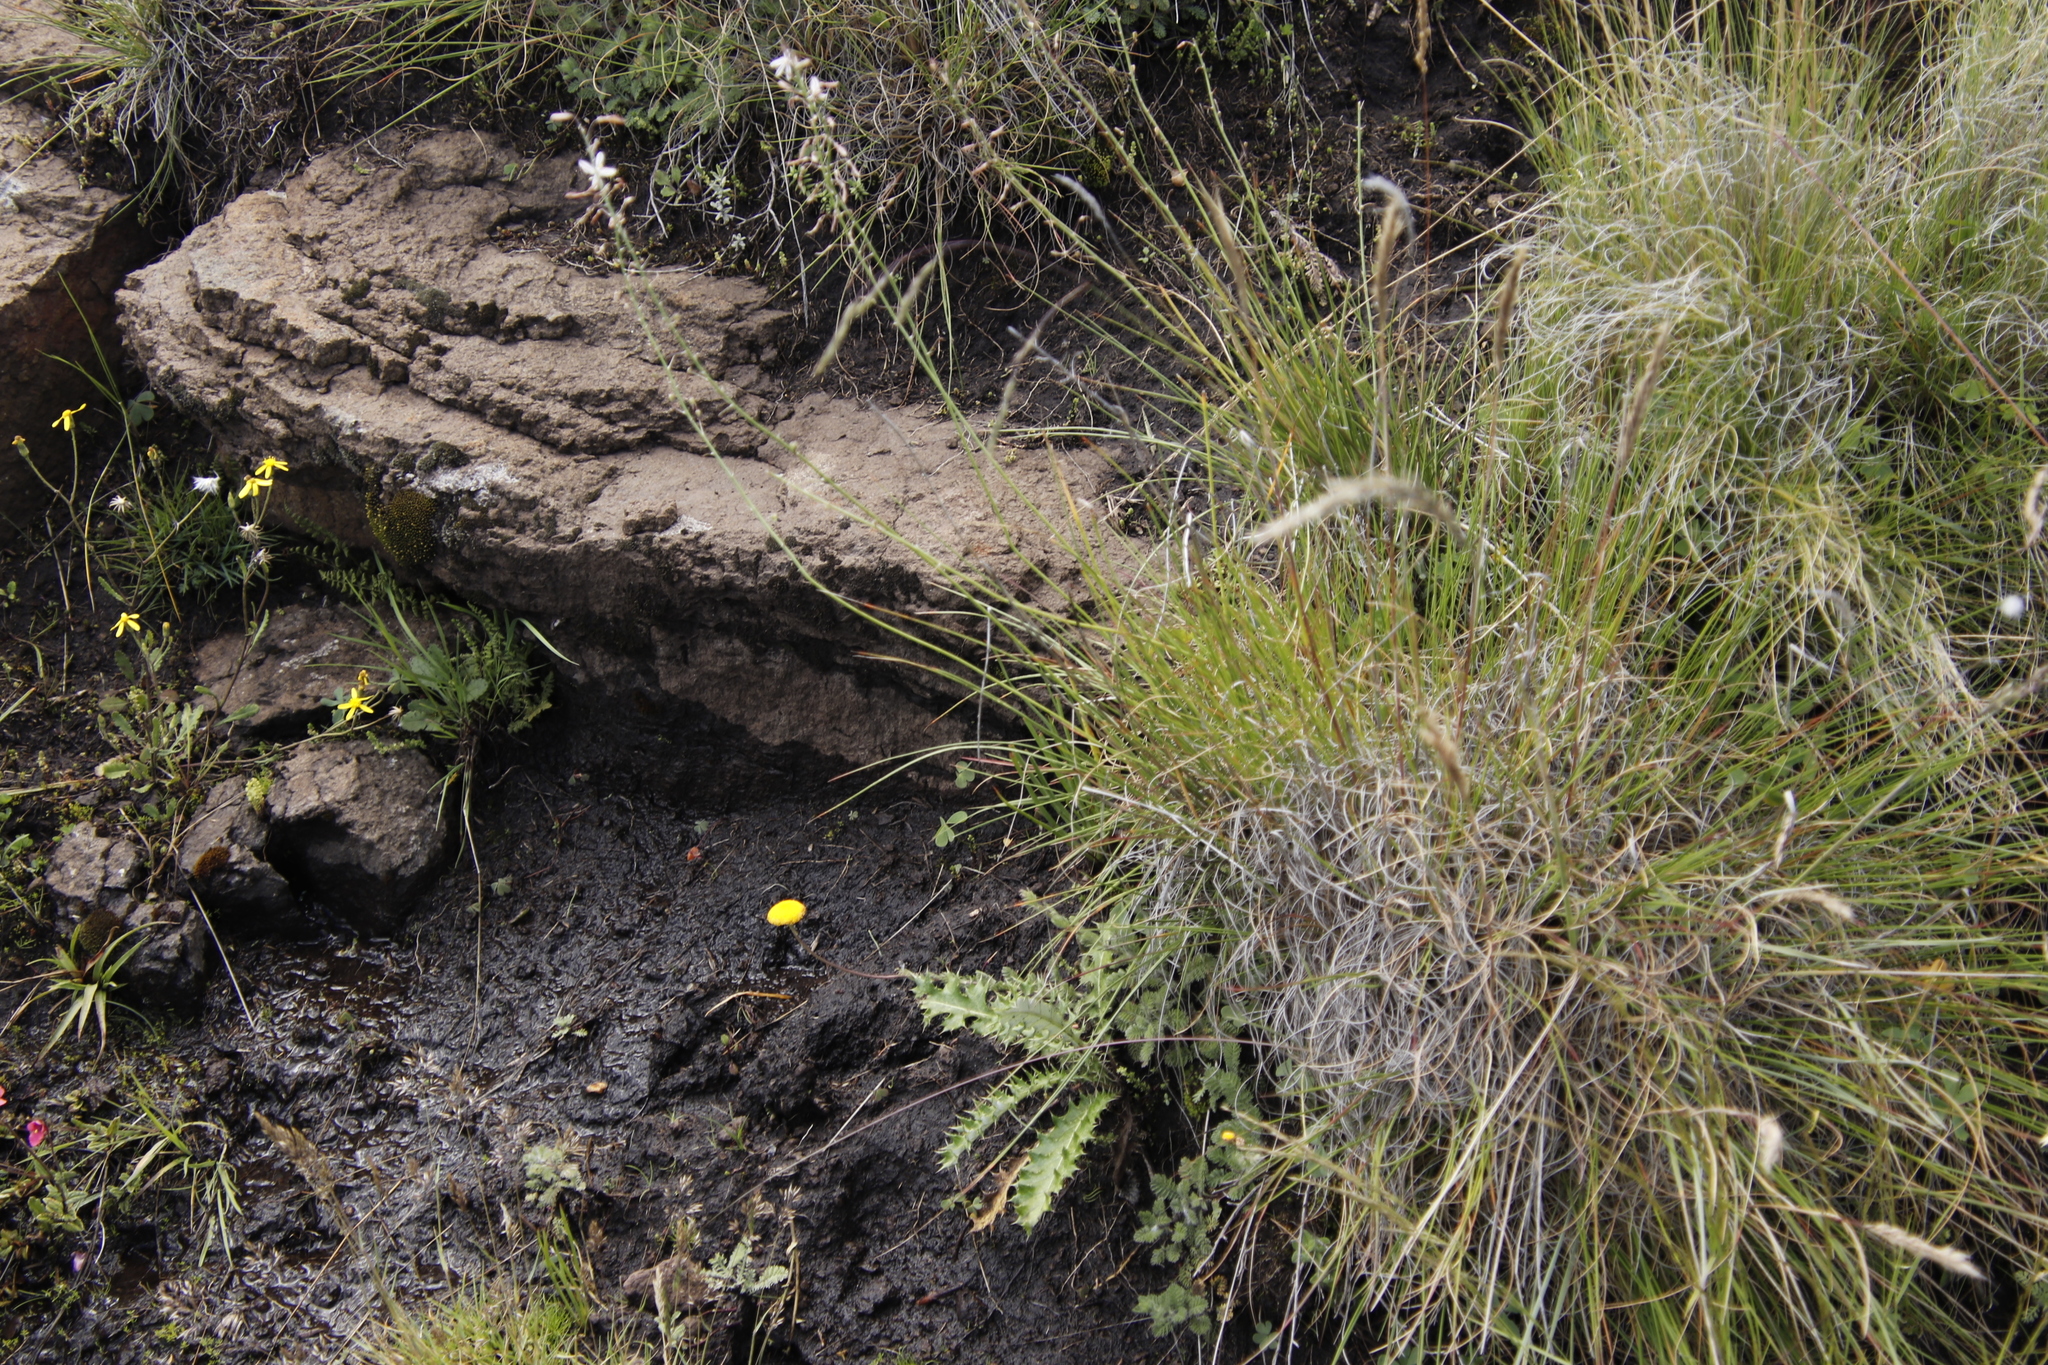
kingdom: Plantae
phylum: Tracheophyta
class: Liliopsida
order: Asparagales
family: Asphodelaceae
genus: Trachyandra
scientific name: Trachyandra saltii
